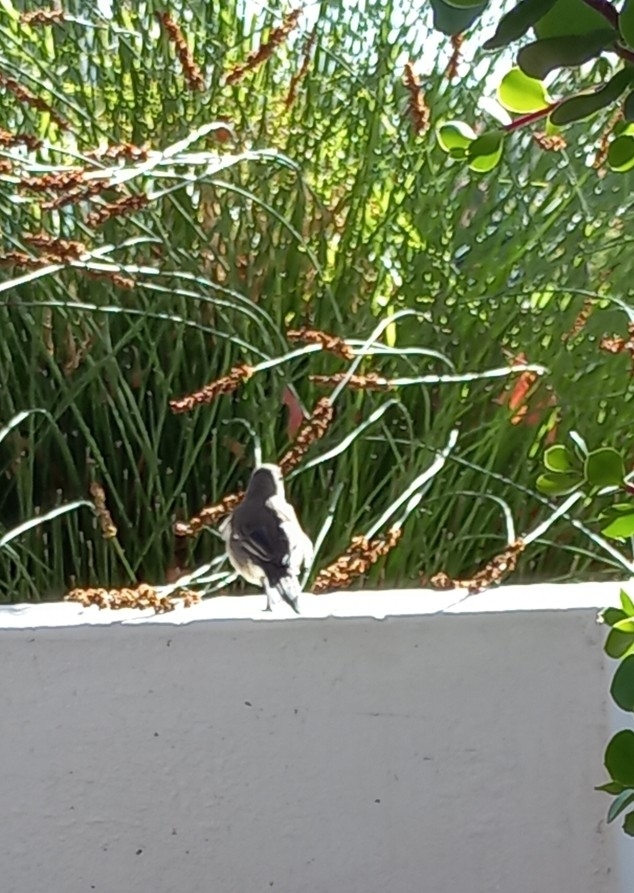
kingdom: Animalia
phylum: Chordata
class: Aves
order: Passeriformes
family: Motacillidae
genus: Motacilla
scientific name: Motacilla capensis
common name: Cape wagtail
